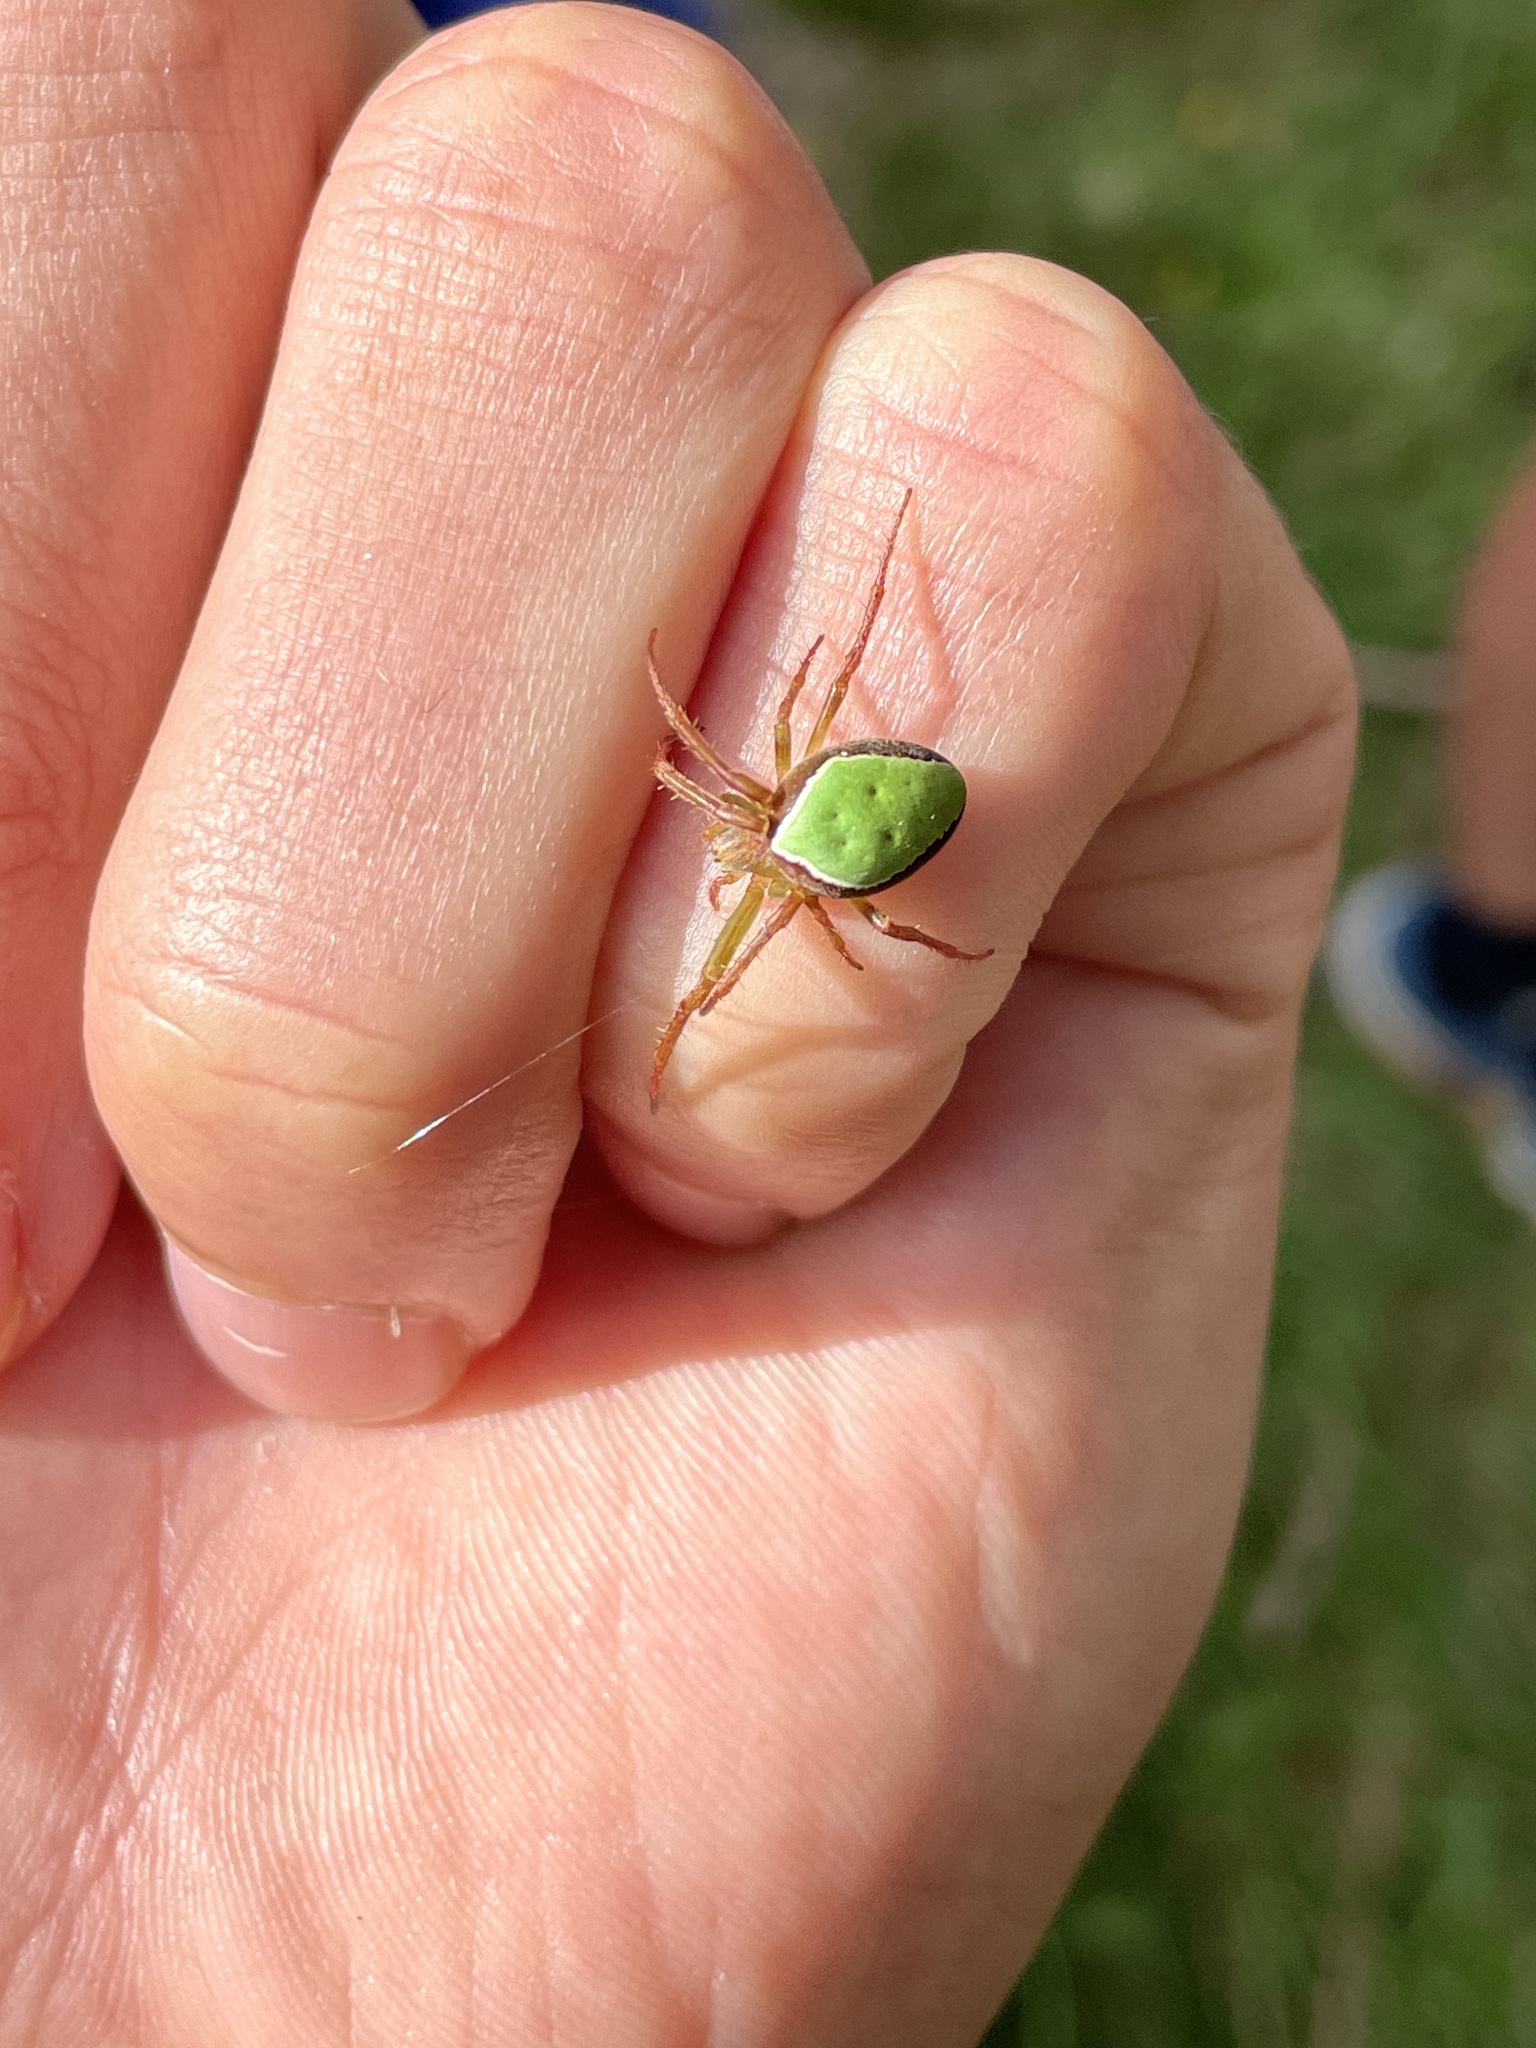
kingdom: Animalia
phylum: Arthropoda
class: Arachnida
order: Araneae
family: Araneidae
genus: Colaranea
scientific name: Colaranea viriditas
